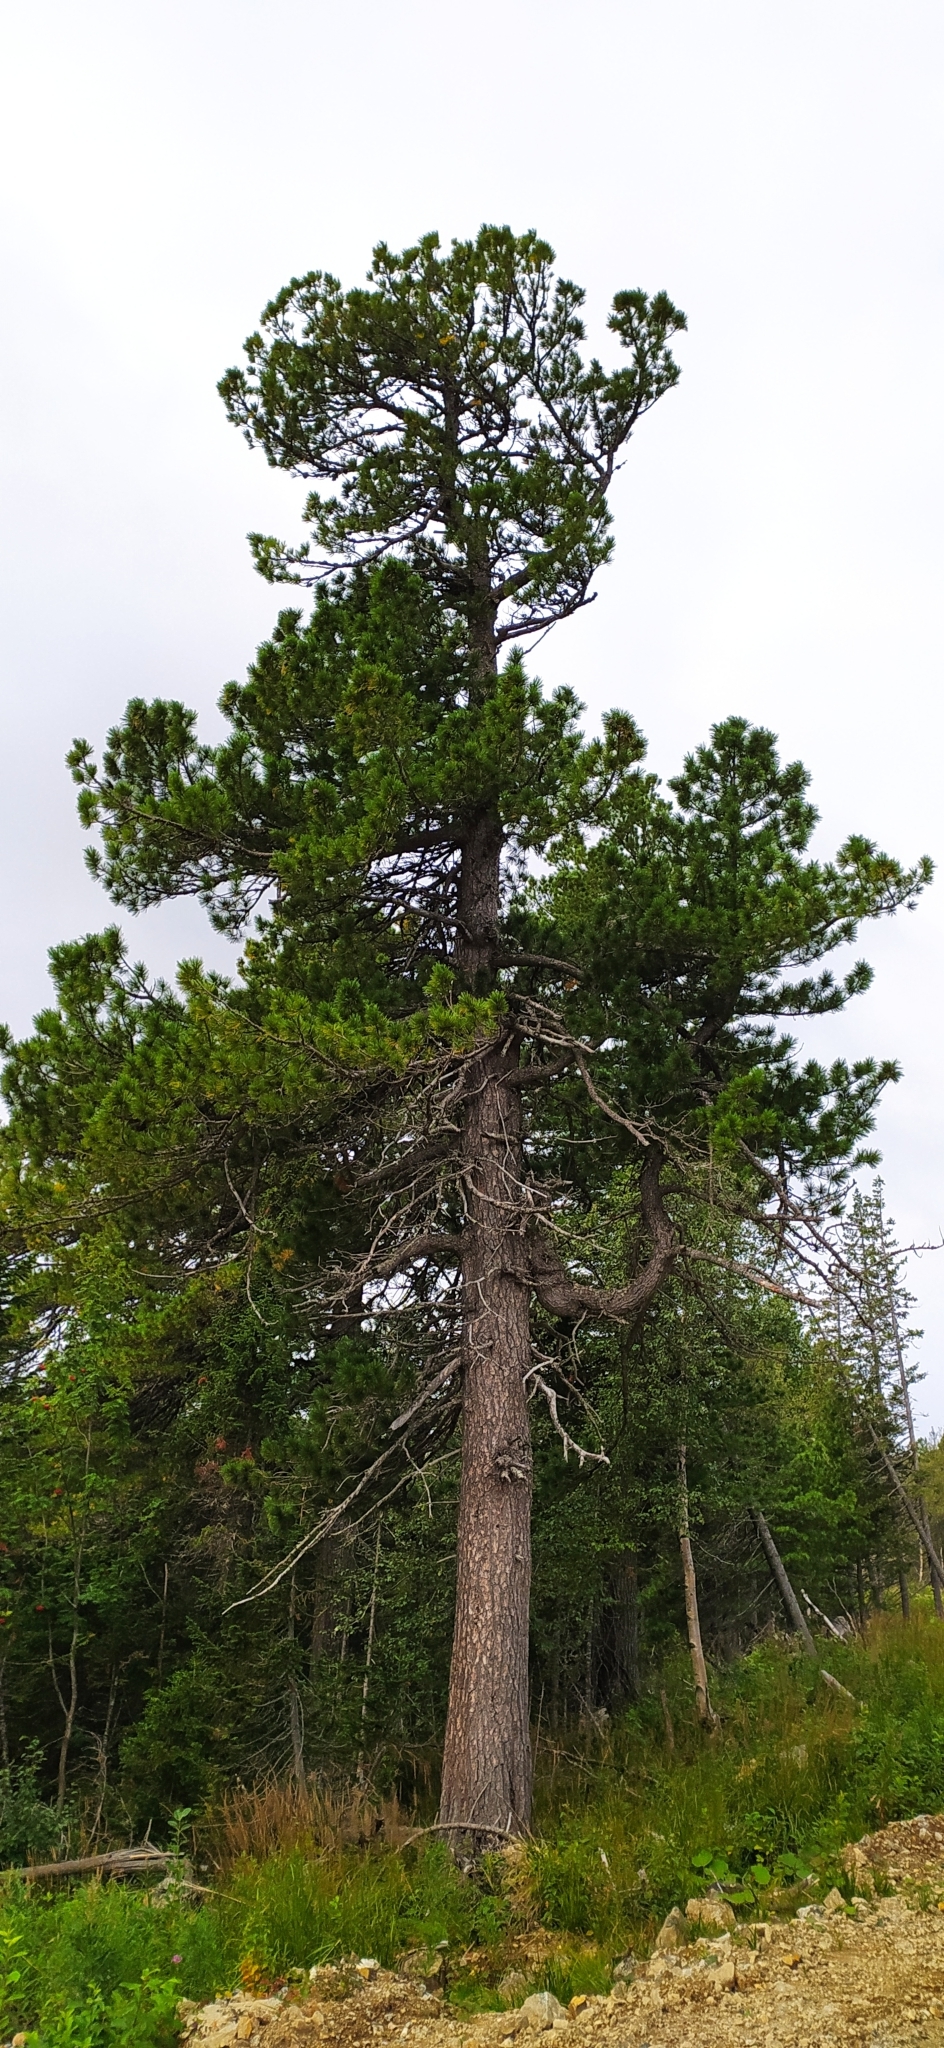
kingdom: Plantae
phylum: Tracheophyta
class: Pinopsida
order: Pinales
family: Pinaceae
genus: Pinus
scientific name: Pinus sibirica
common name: Siberian pine
